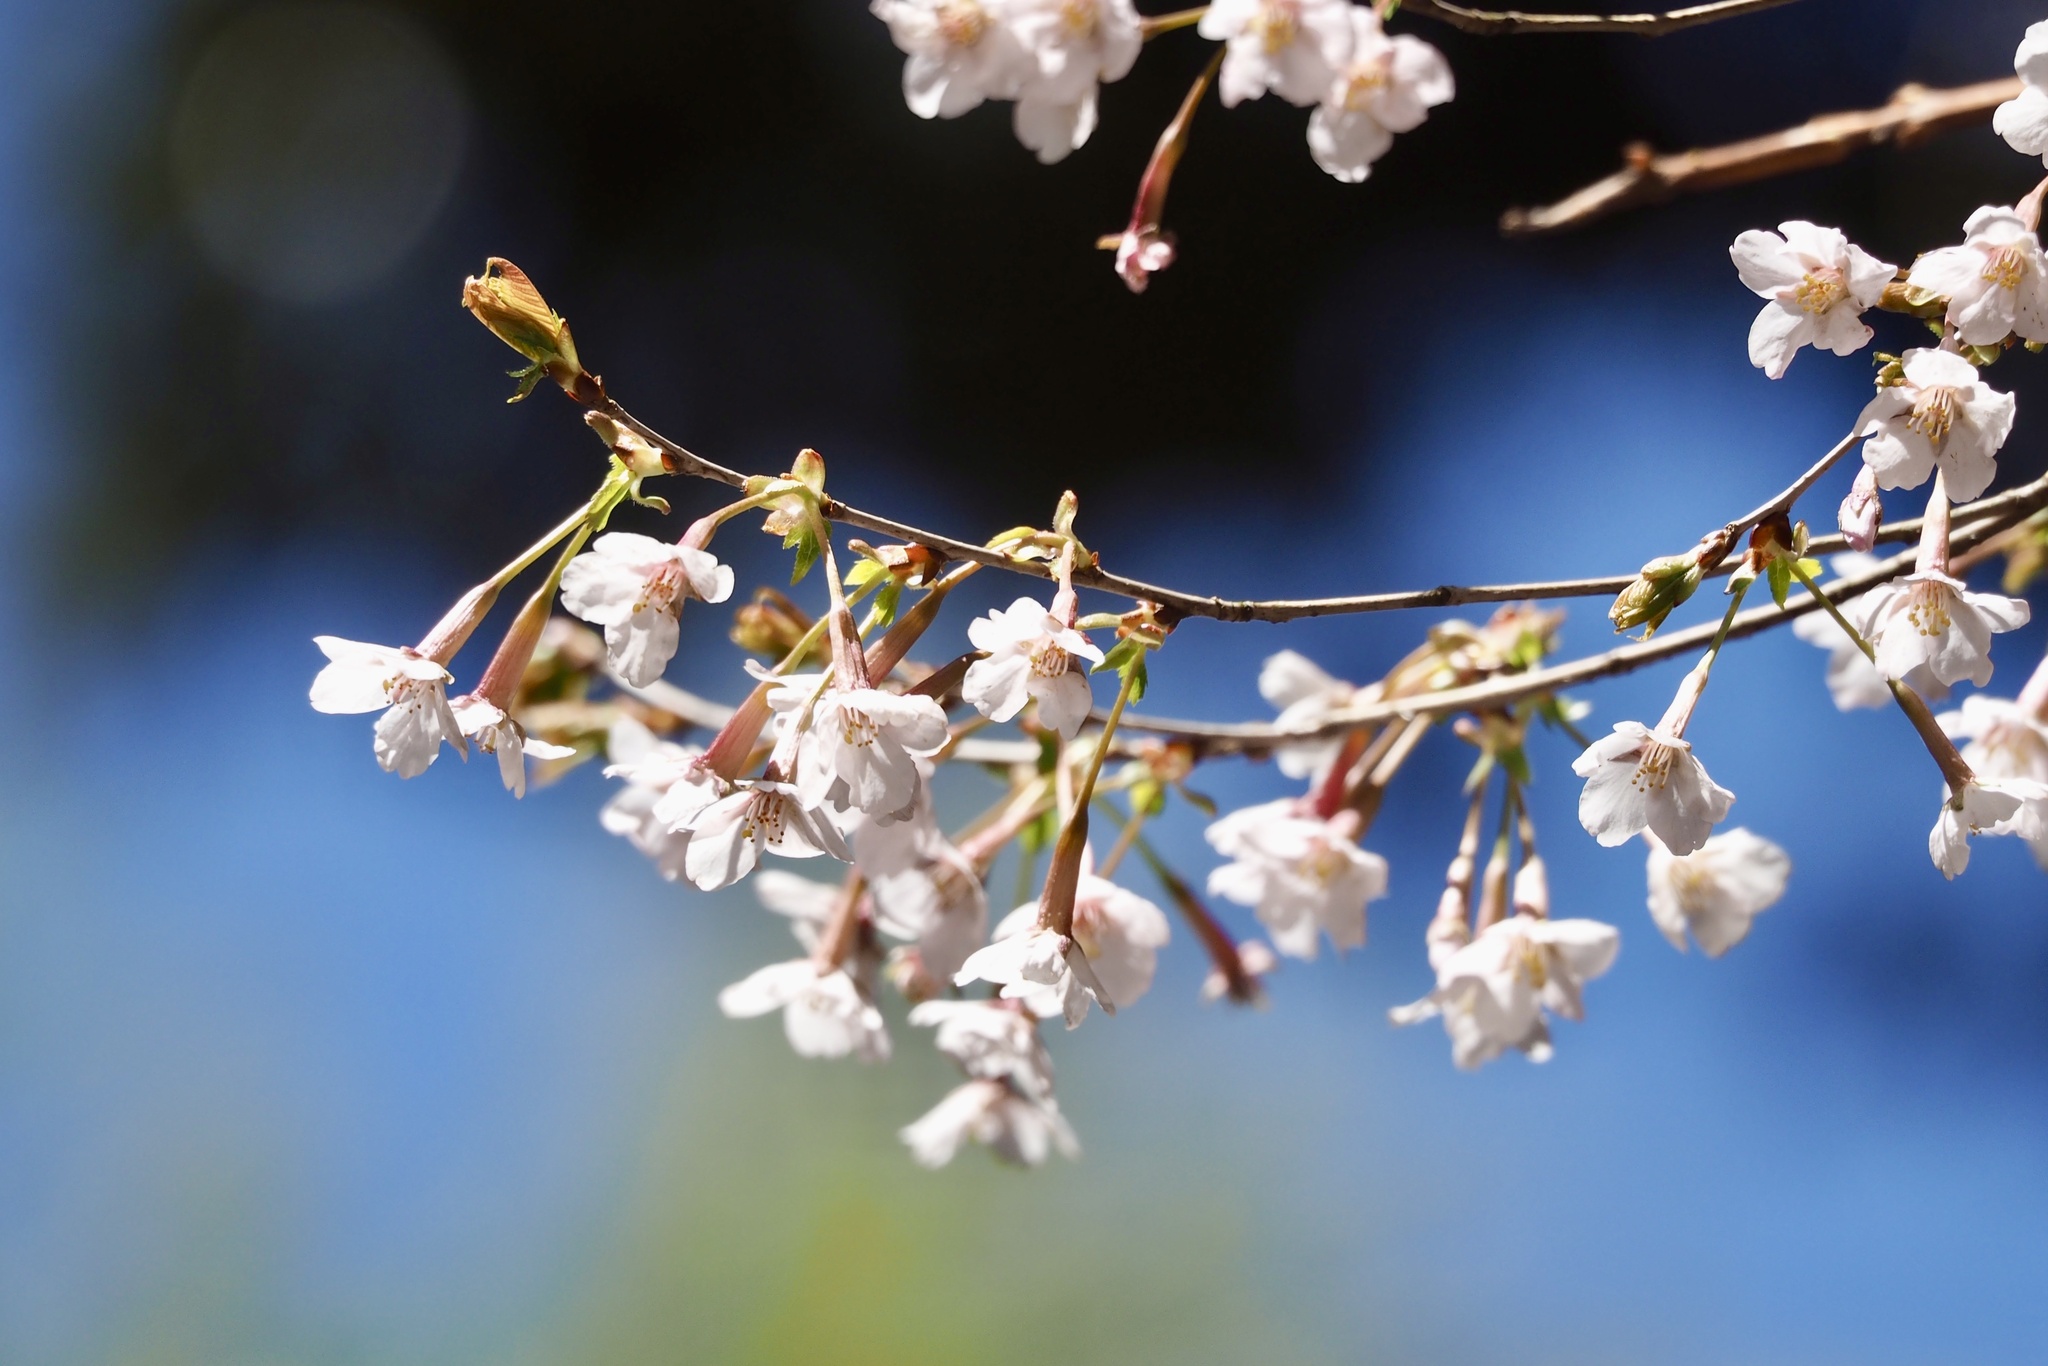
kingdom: Plantae
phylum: Tracheophyta
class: Magnoliopsida
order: Rosales
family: Rosaceae
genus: Prunus
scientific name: Prunus incisa
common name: Fuji cherry
